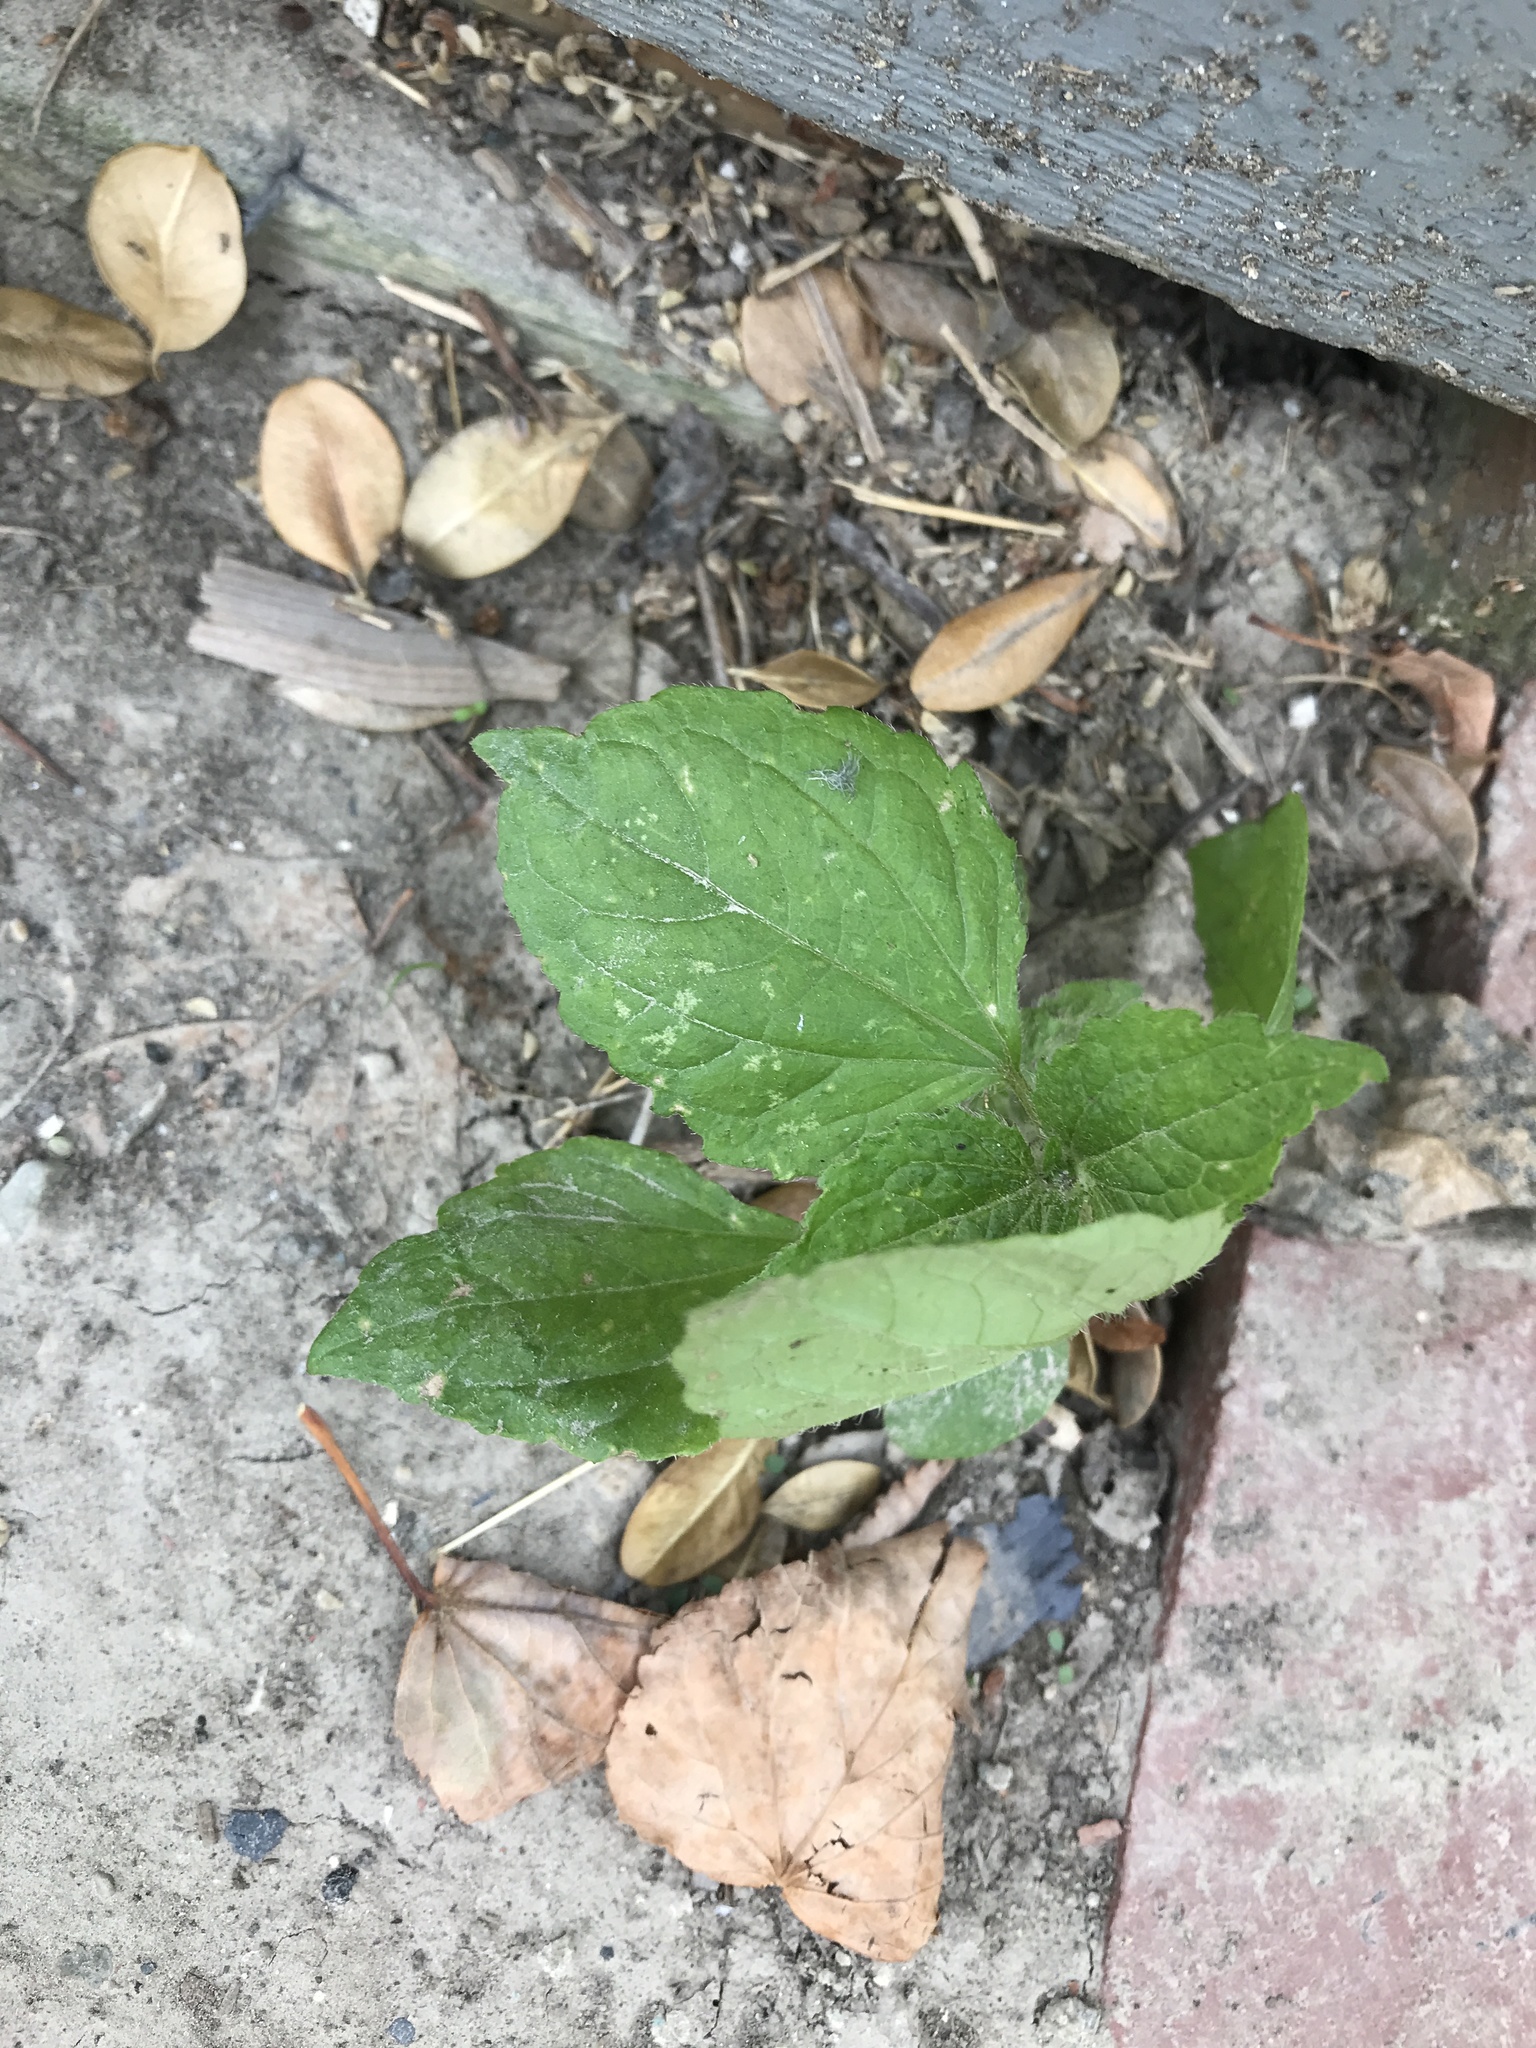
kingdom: Plantae
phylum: Tracheophyta
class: Magnoliopsida
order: Asterales
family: Asteraceae
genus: Galinsoga
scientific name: Galinsoga quadriradiata
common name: Shaggy soldier
